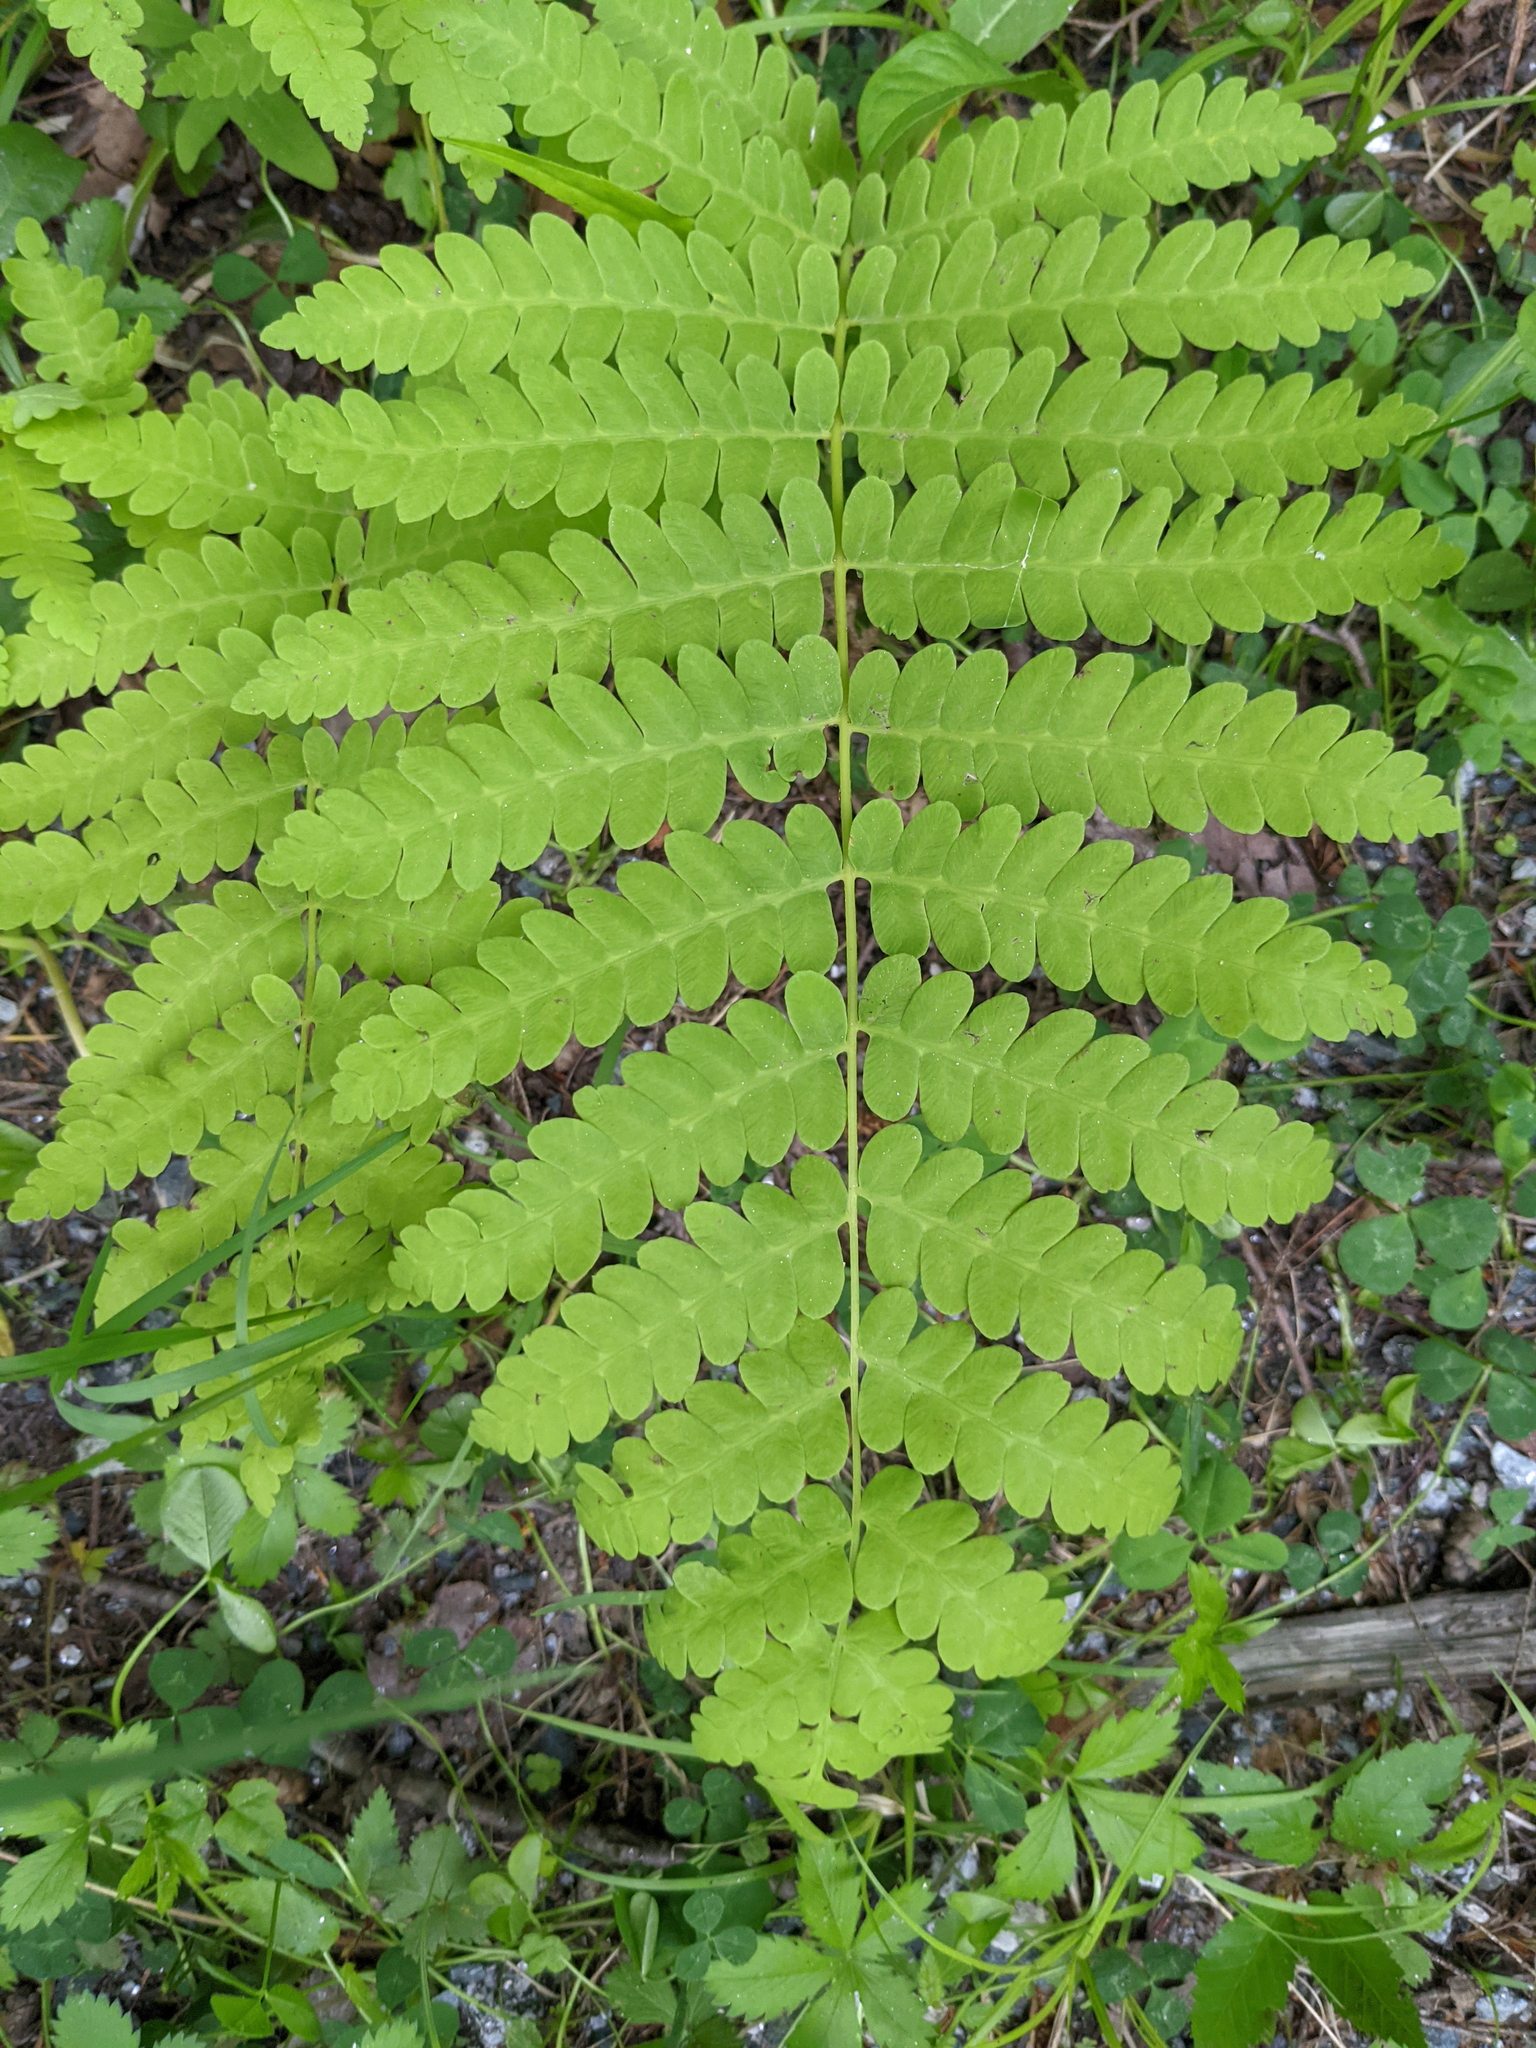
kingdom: Plantae
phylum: Tracheophyta
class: Polypodiopsida
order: Osmundales
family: Osmundaceae
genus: Claytosmunda
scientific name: Claytosmunda claytoniana
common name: Clayton's fern
